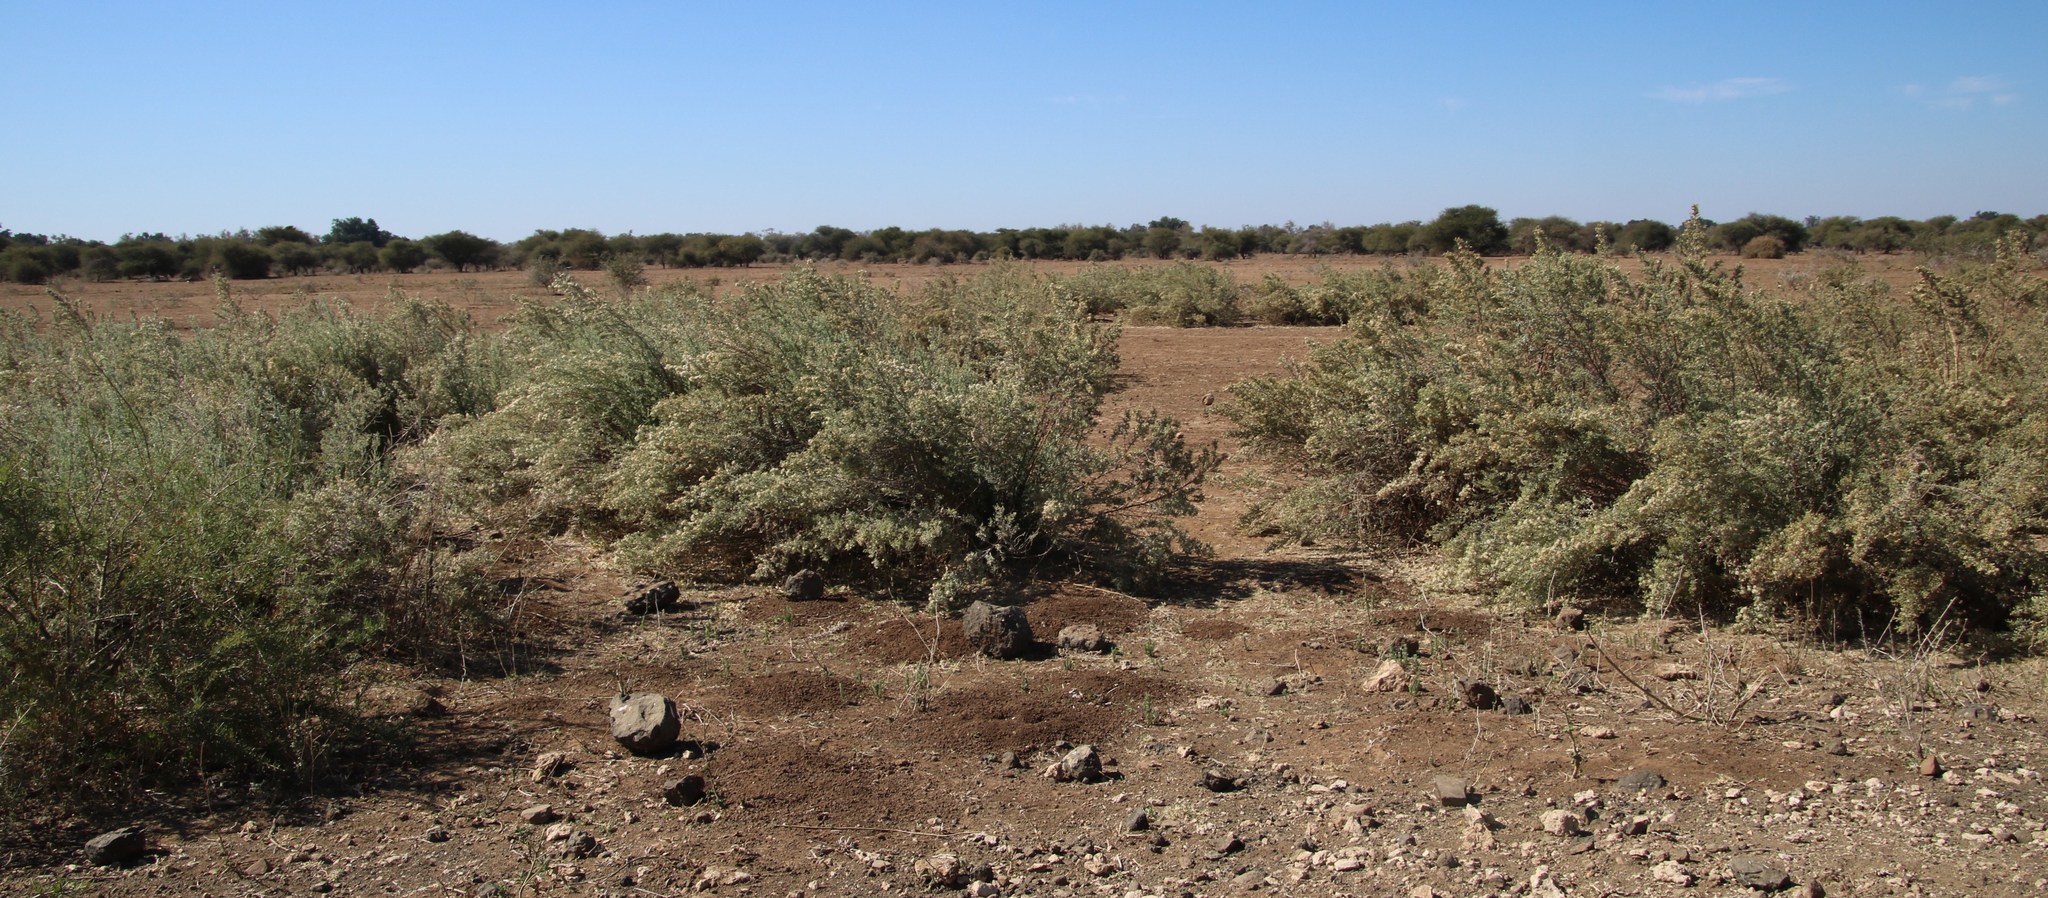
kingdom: Plantae
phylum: Tracheophyta
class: Magnoliopsida
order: Asterales
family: Asteraceae
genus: Galgera
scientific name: Galgera decurrens
